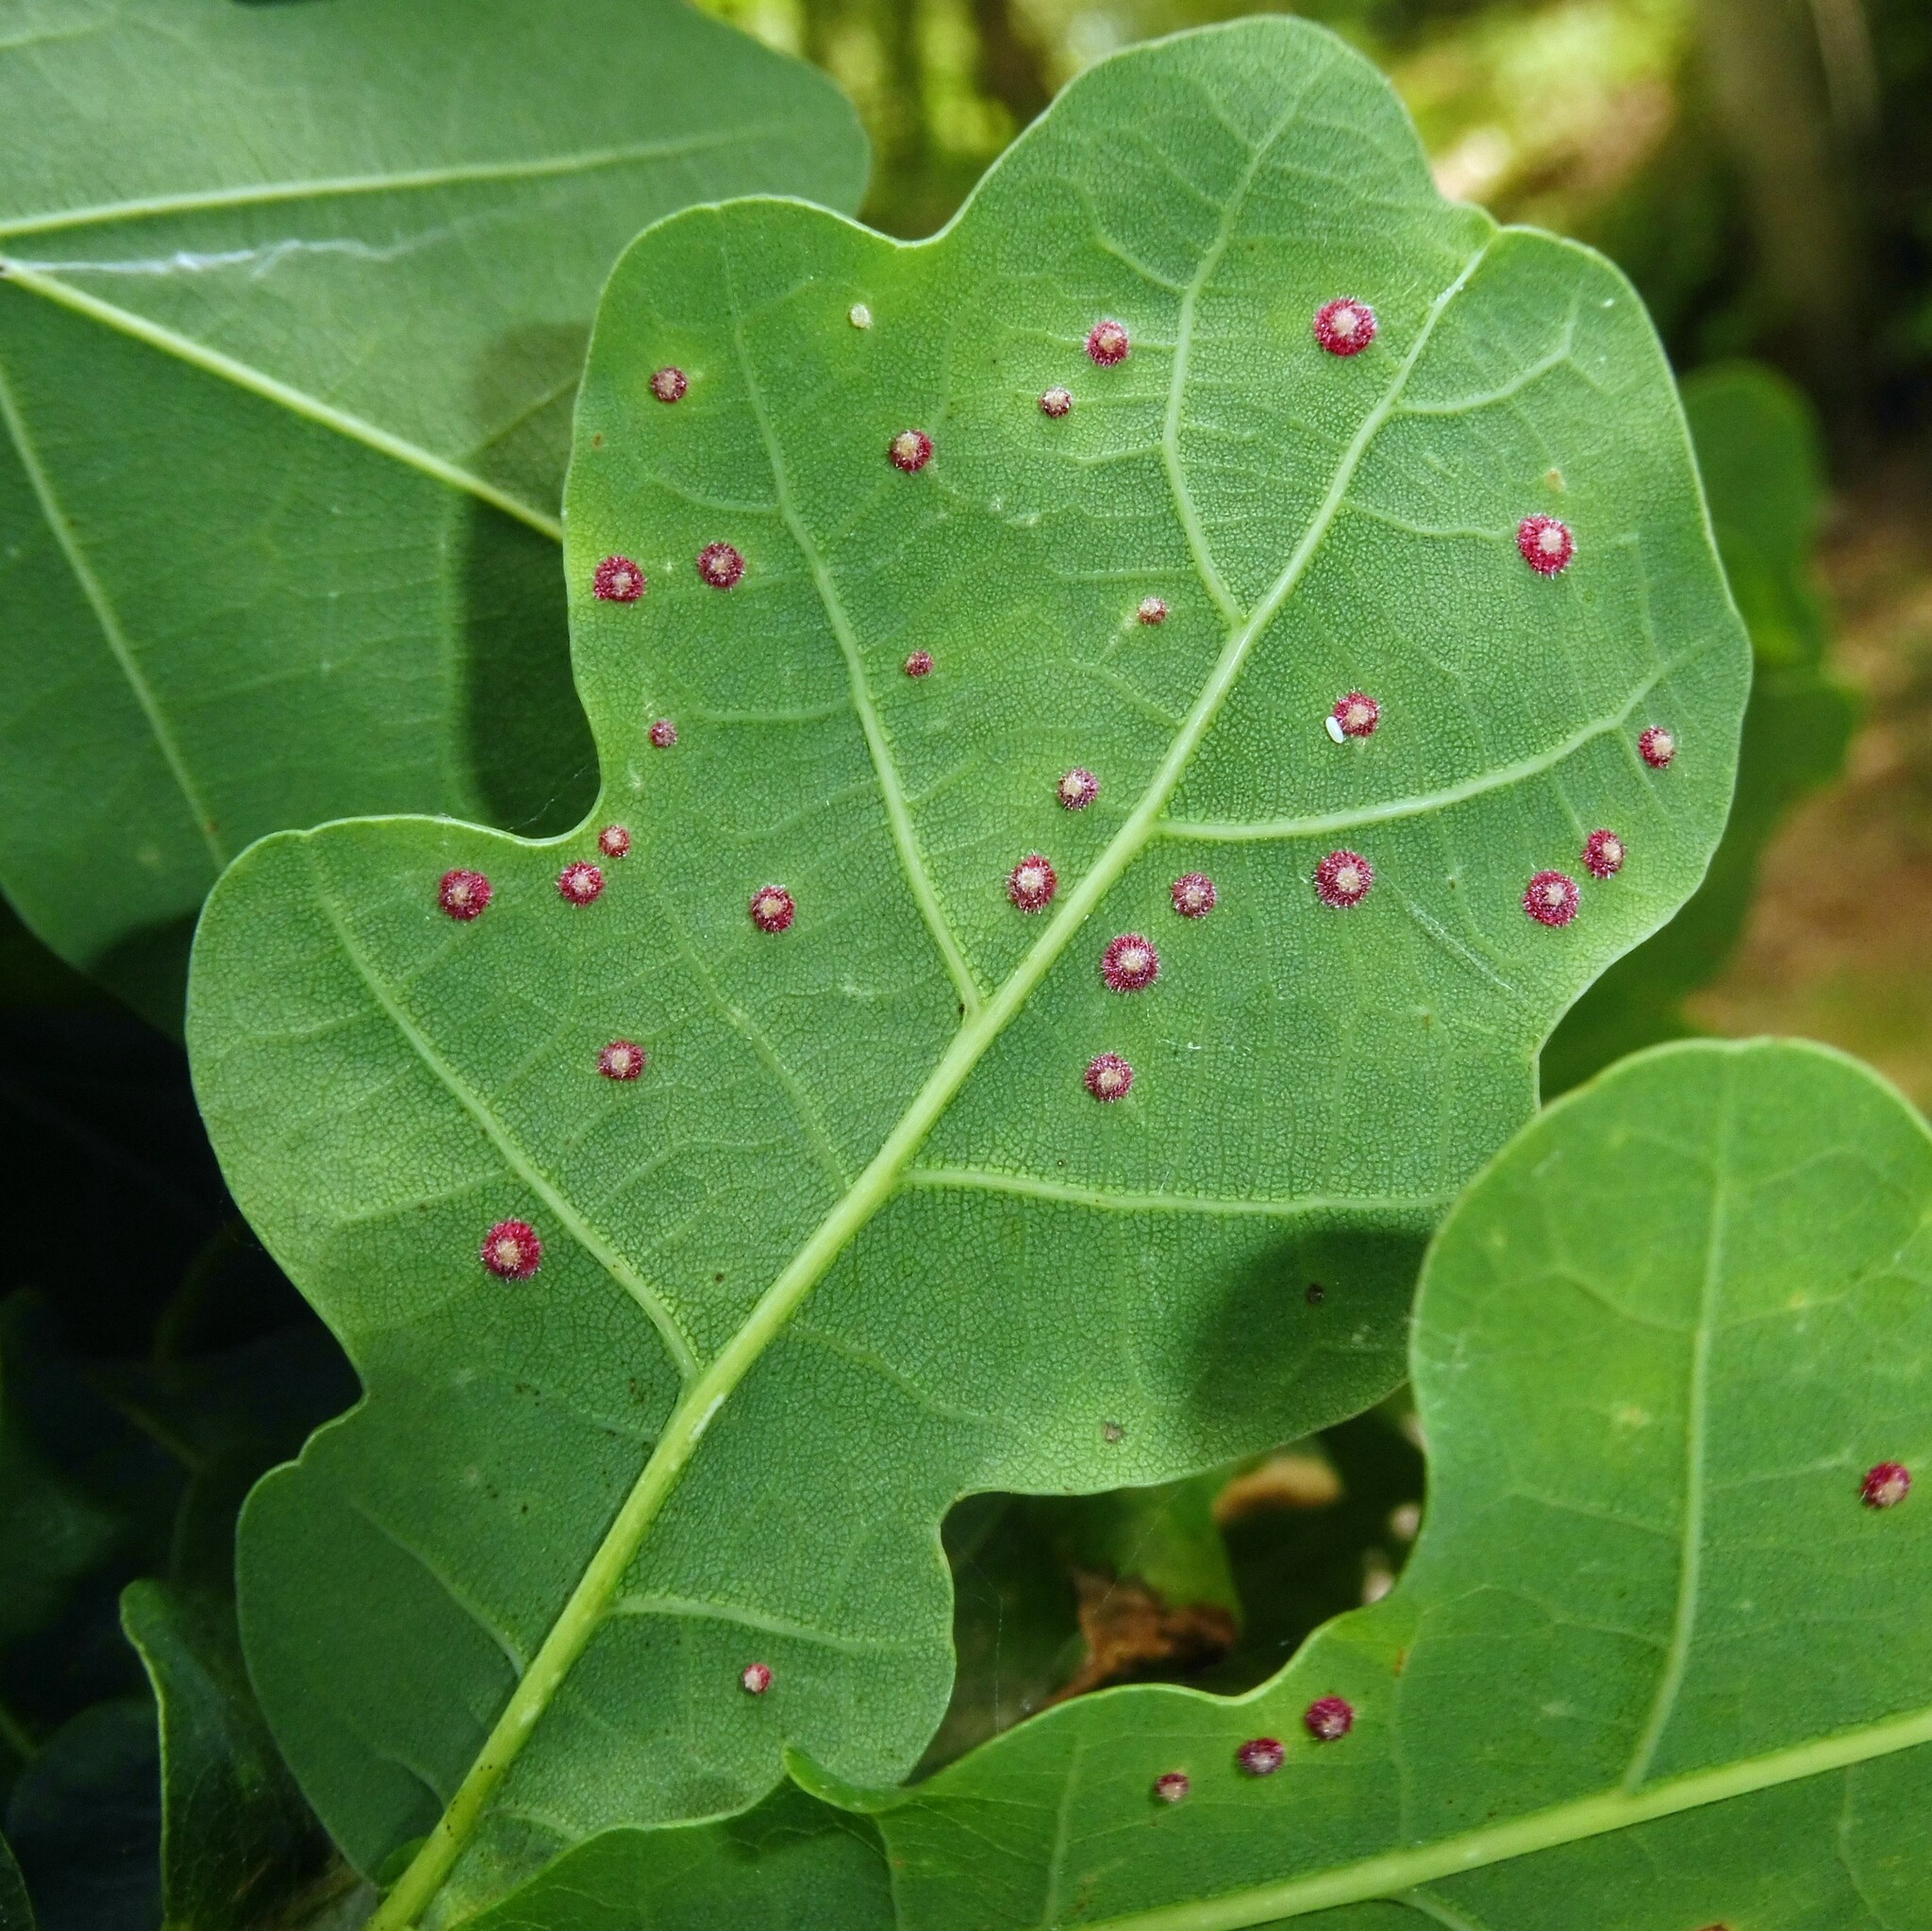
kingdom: Animalia
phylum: Arthropoda
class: Insecta
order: Hymenoptera
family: Cynipidae
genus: Neuroterus
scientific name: Neuroterus quercusbaccarum
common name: Common spangle gall
